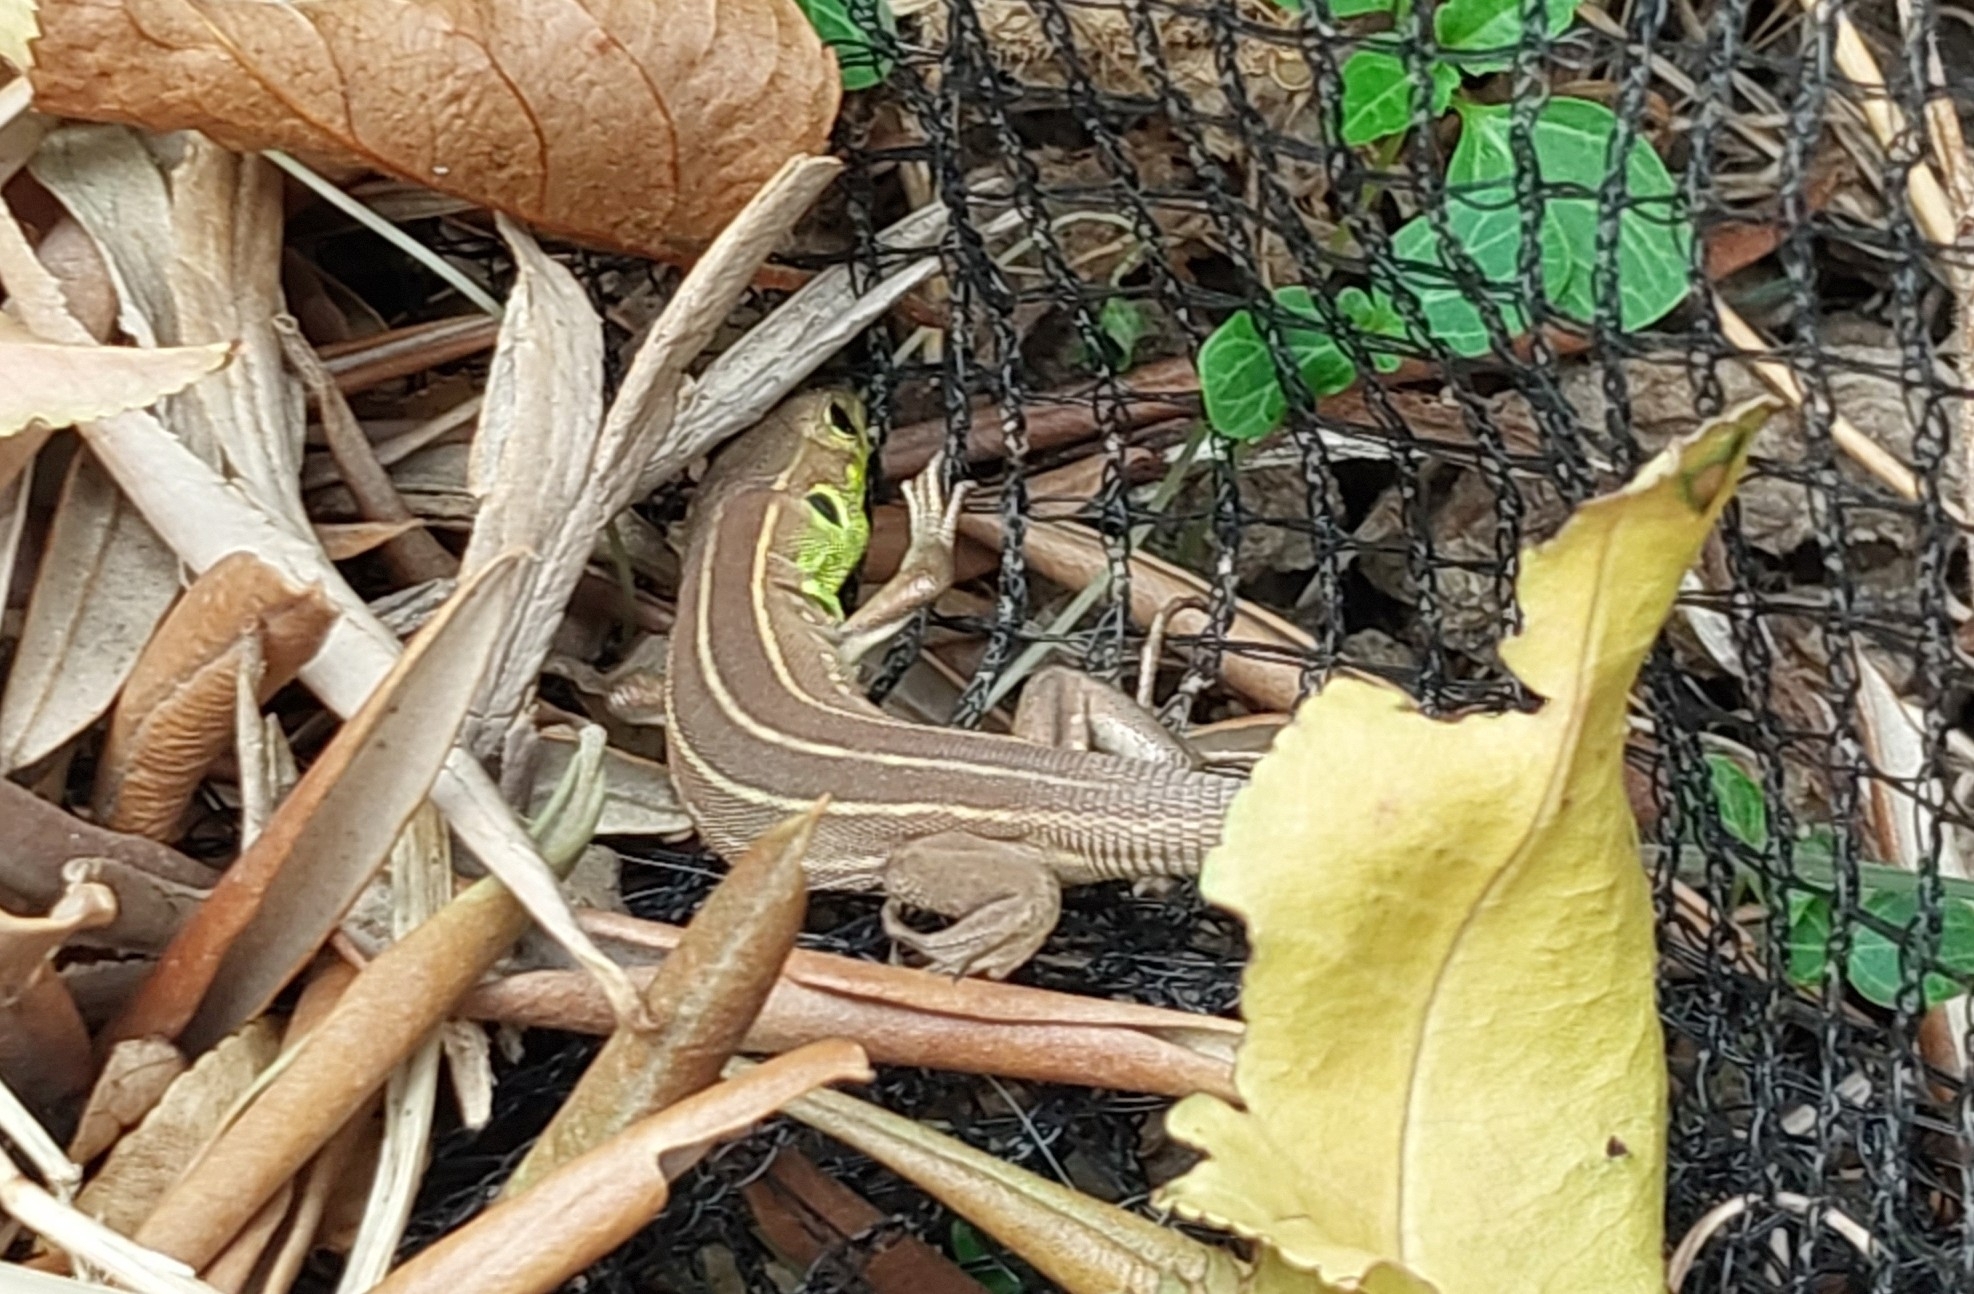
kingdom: Animalia
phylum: Chordata
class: Squamata
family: Lacertidae
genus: Lacerta
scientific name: Lacerta trilineata
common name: Balkan green lizard
